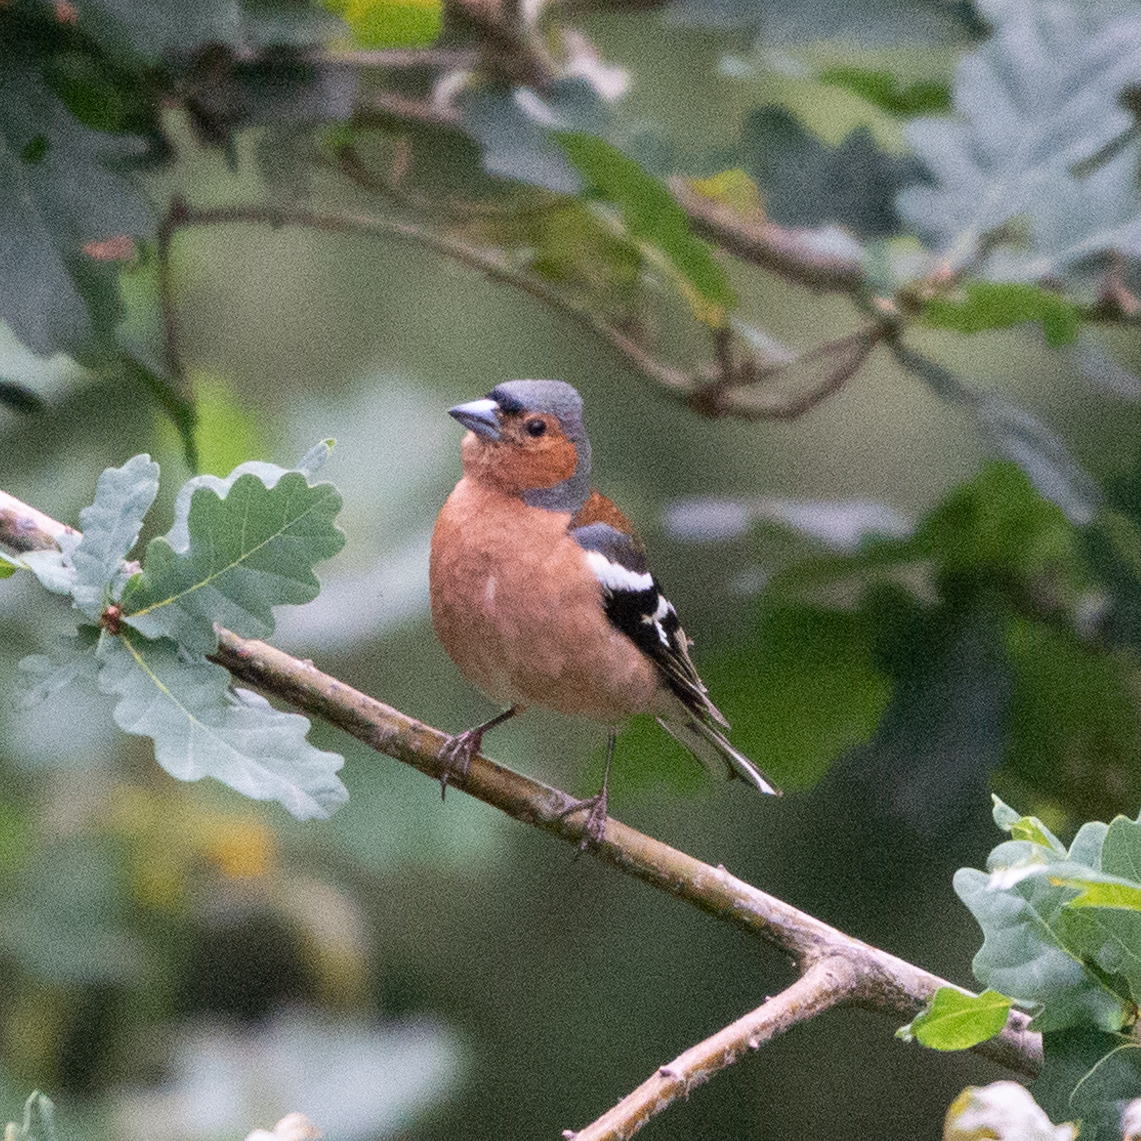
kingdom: Animalia
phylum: Chordata
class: Aves
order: Passeriformes
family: Fringillidae
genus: Fringilla
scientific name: Fringilla coelebs
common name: Common chaffinch
